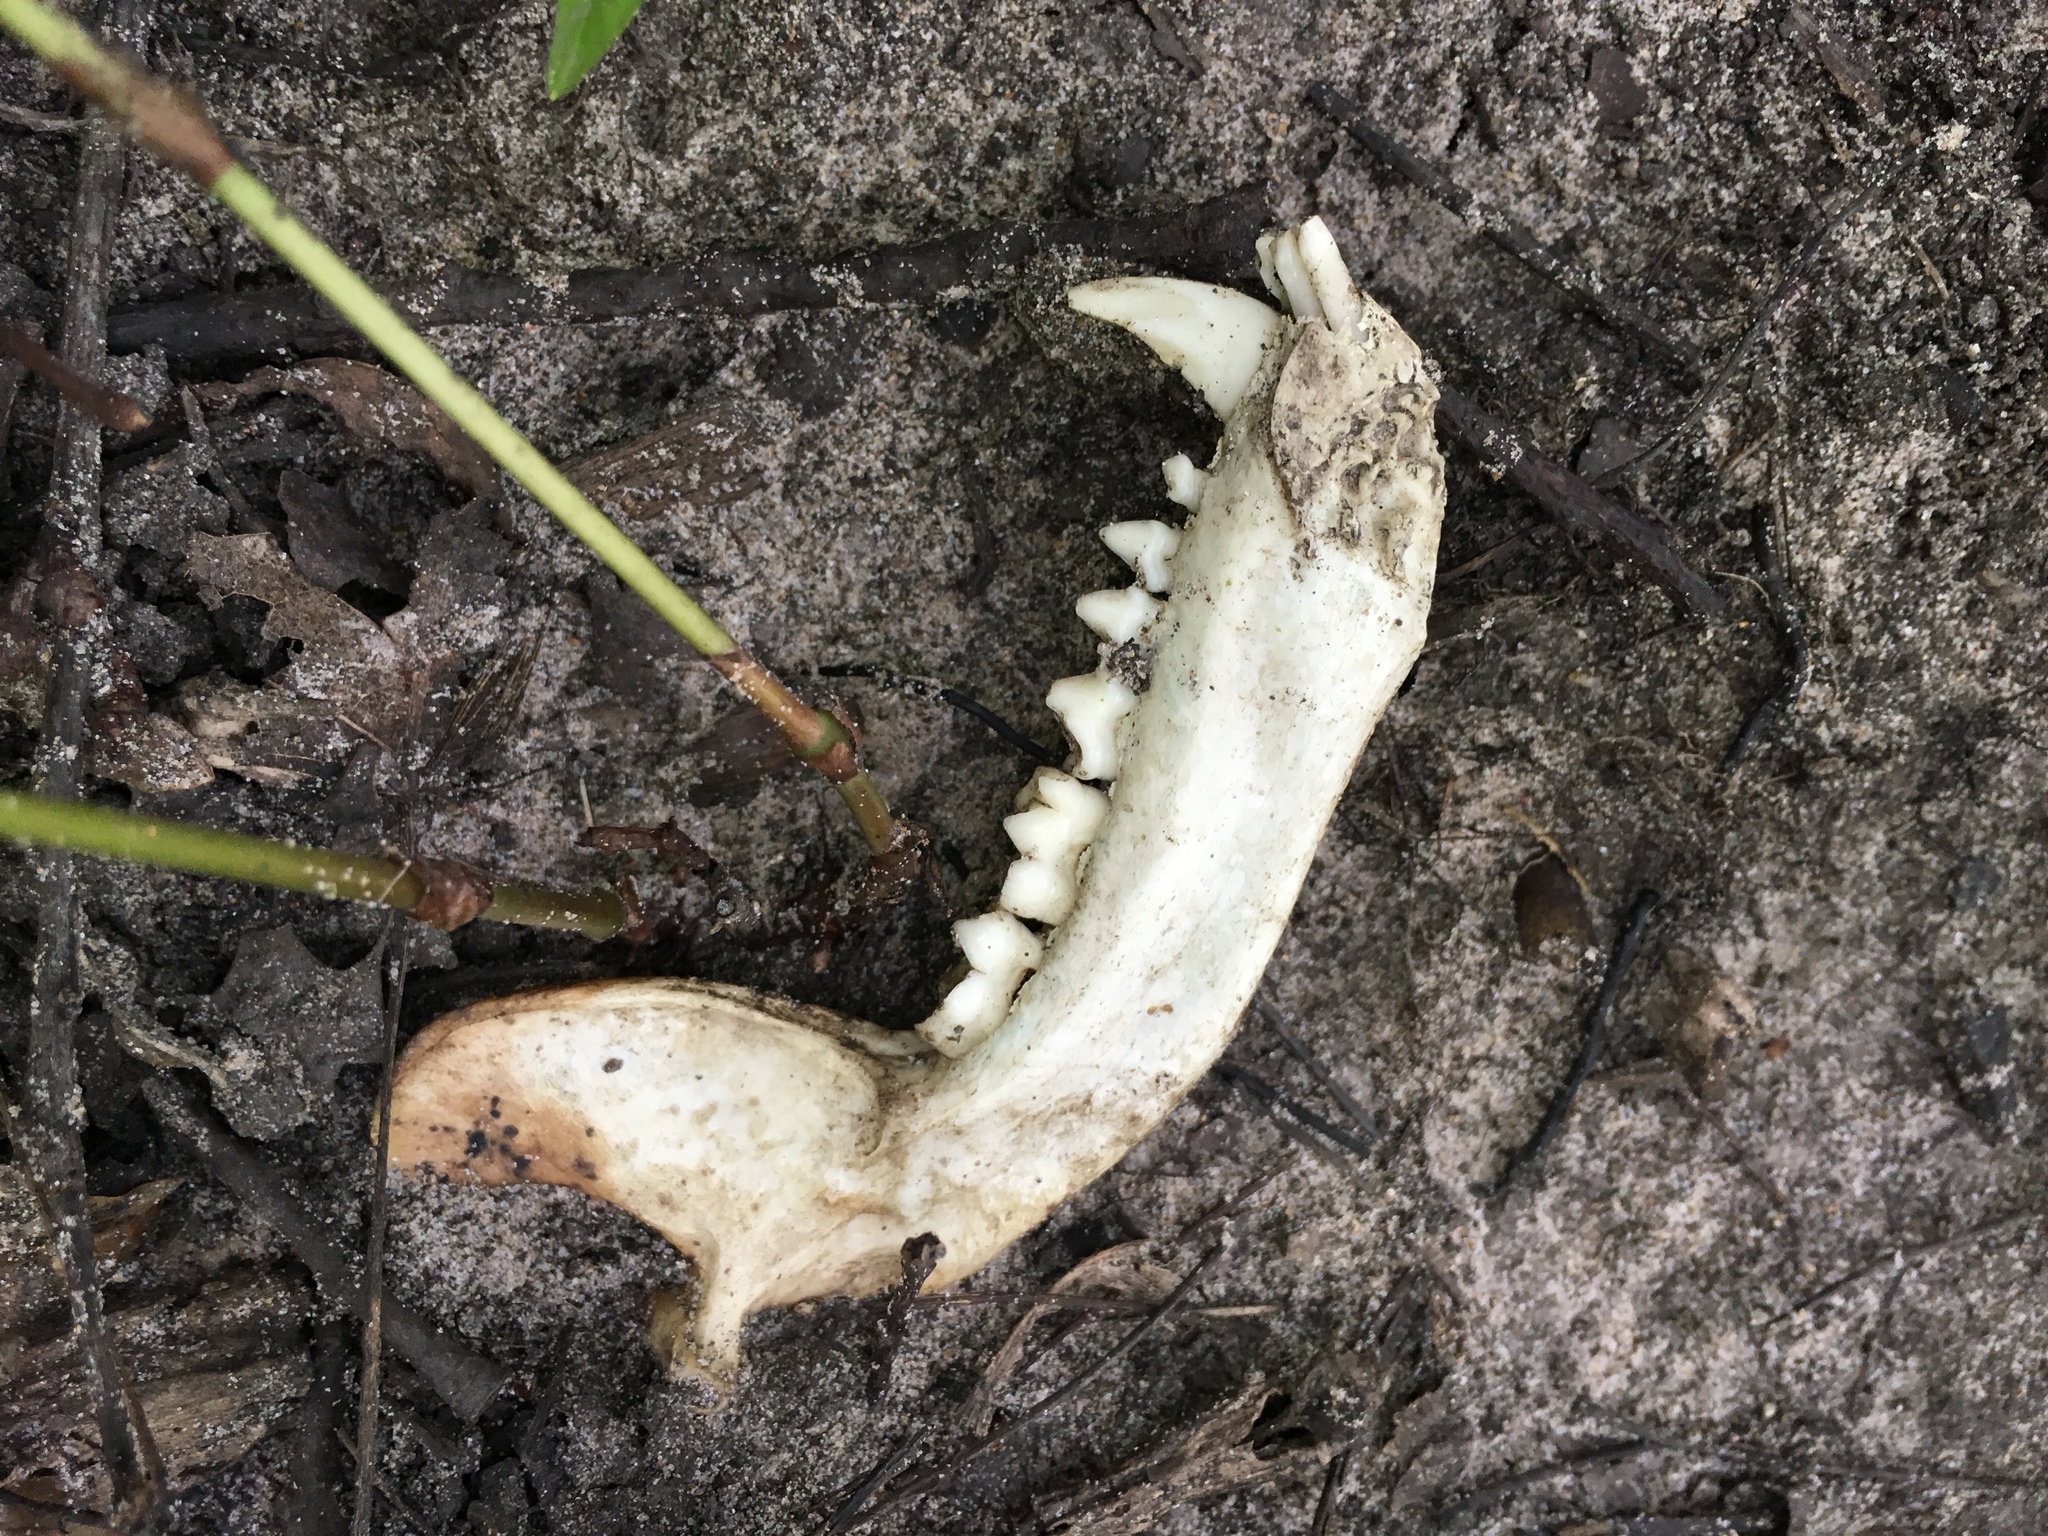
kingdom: Animalia
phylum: Chordata
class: Mammalia
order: Carnivora
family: Procyonidae
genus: Procyon
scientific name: Procyon lotor
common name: Raccoon
